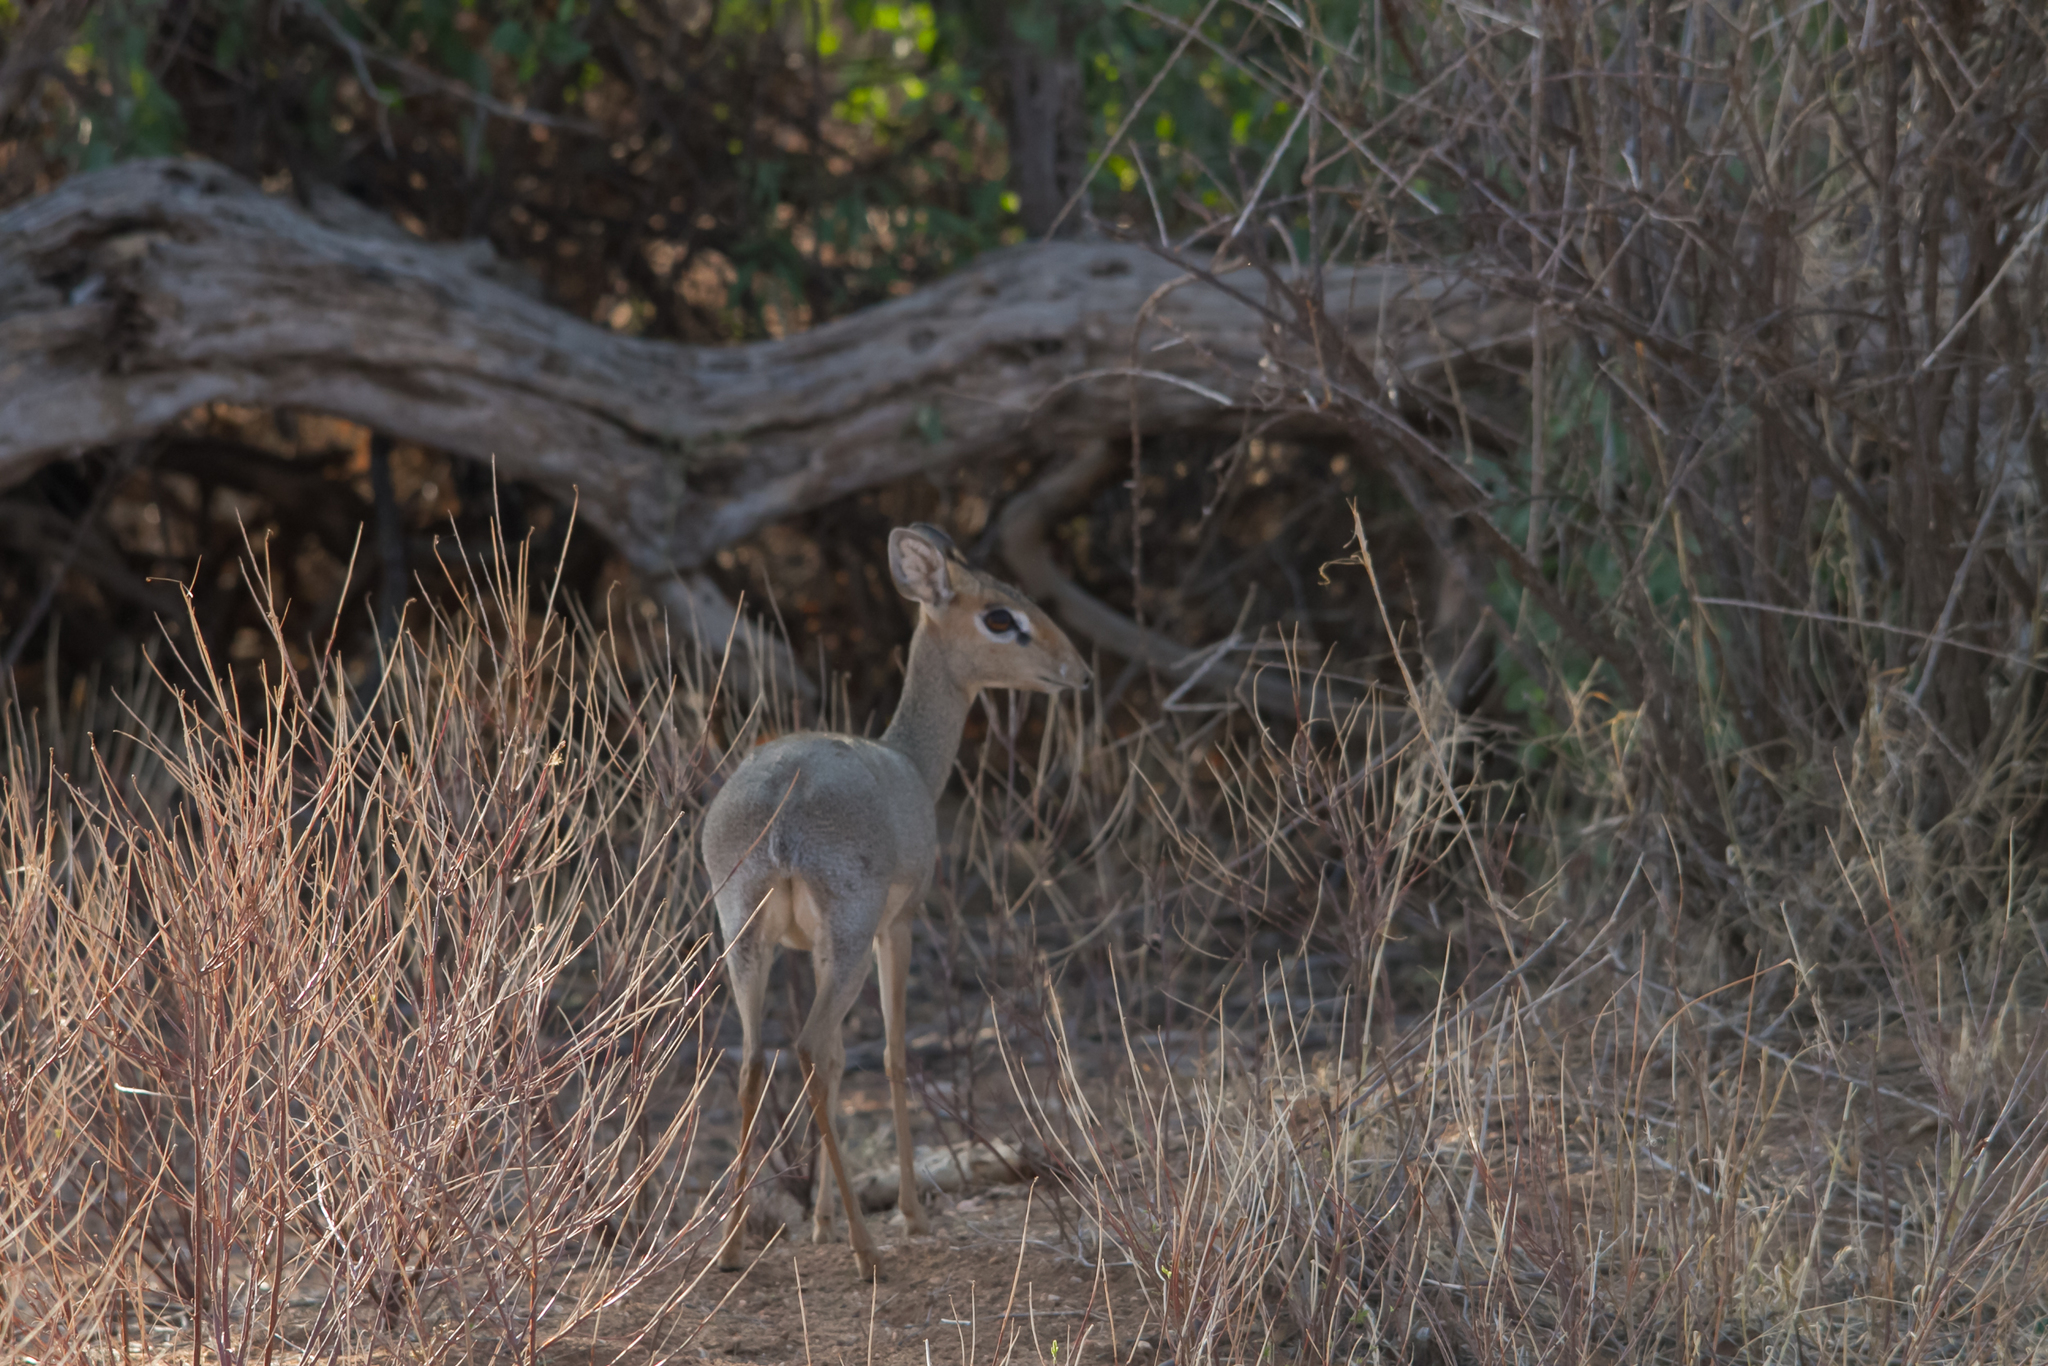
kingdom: Animalia
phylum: Chordata
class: Mammalia
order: Artiodactyla
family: Bovidae
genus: Madoqua
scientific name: Madoqua kirkii
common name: Kirk's dik-dik
